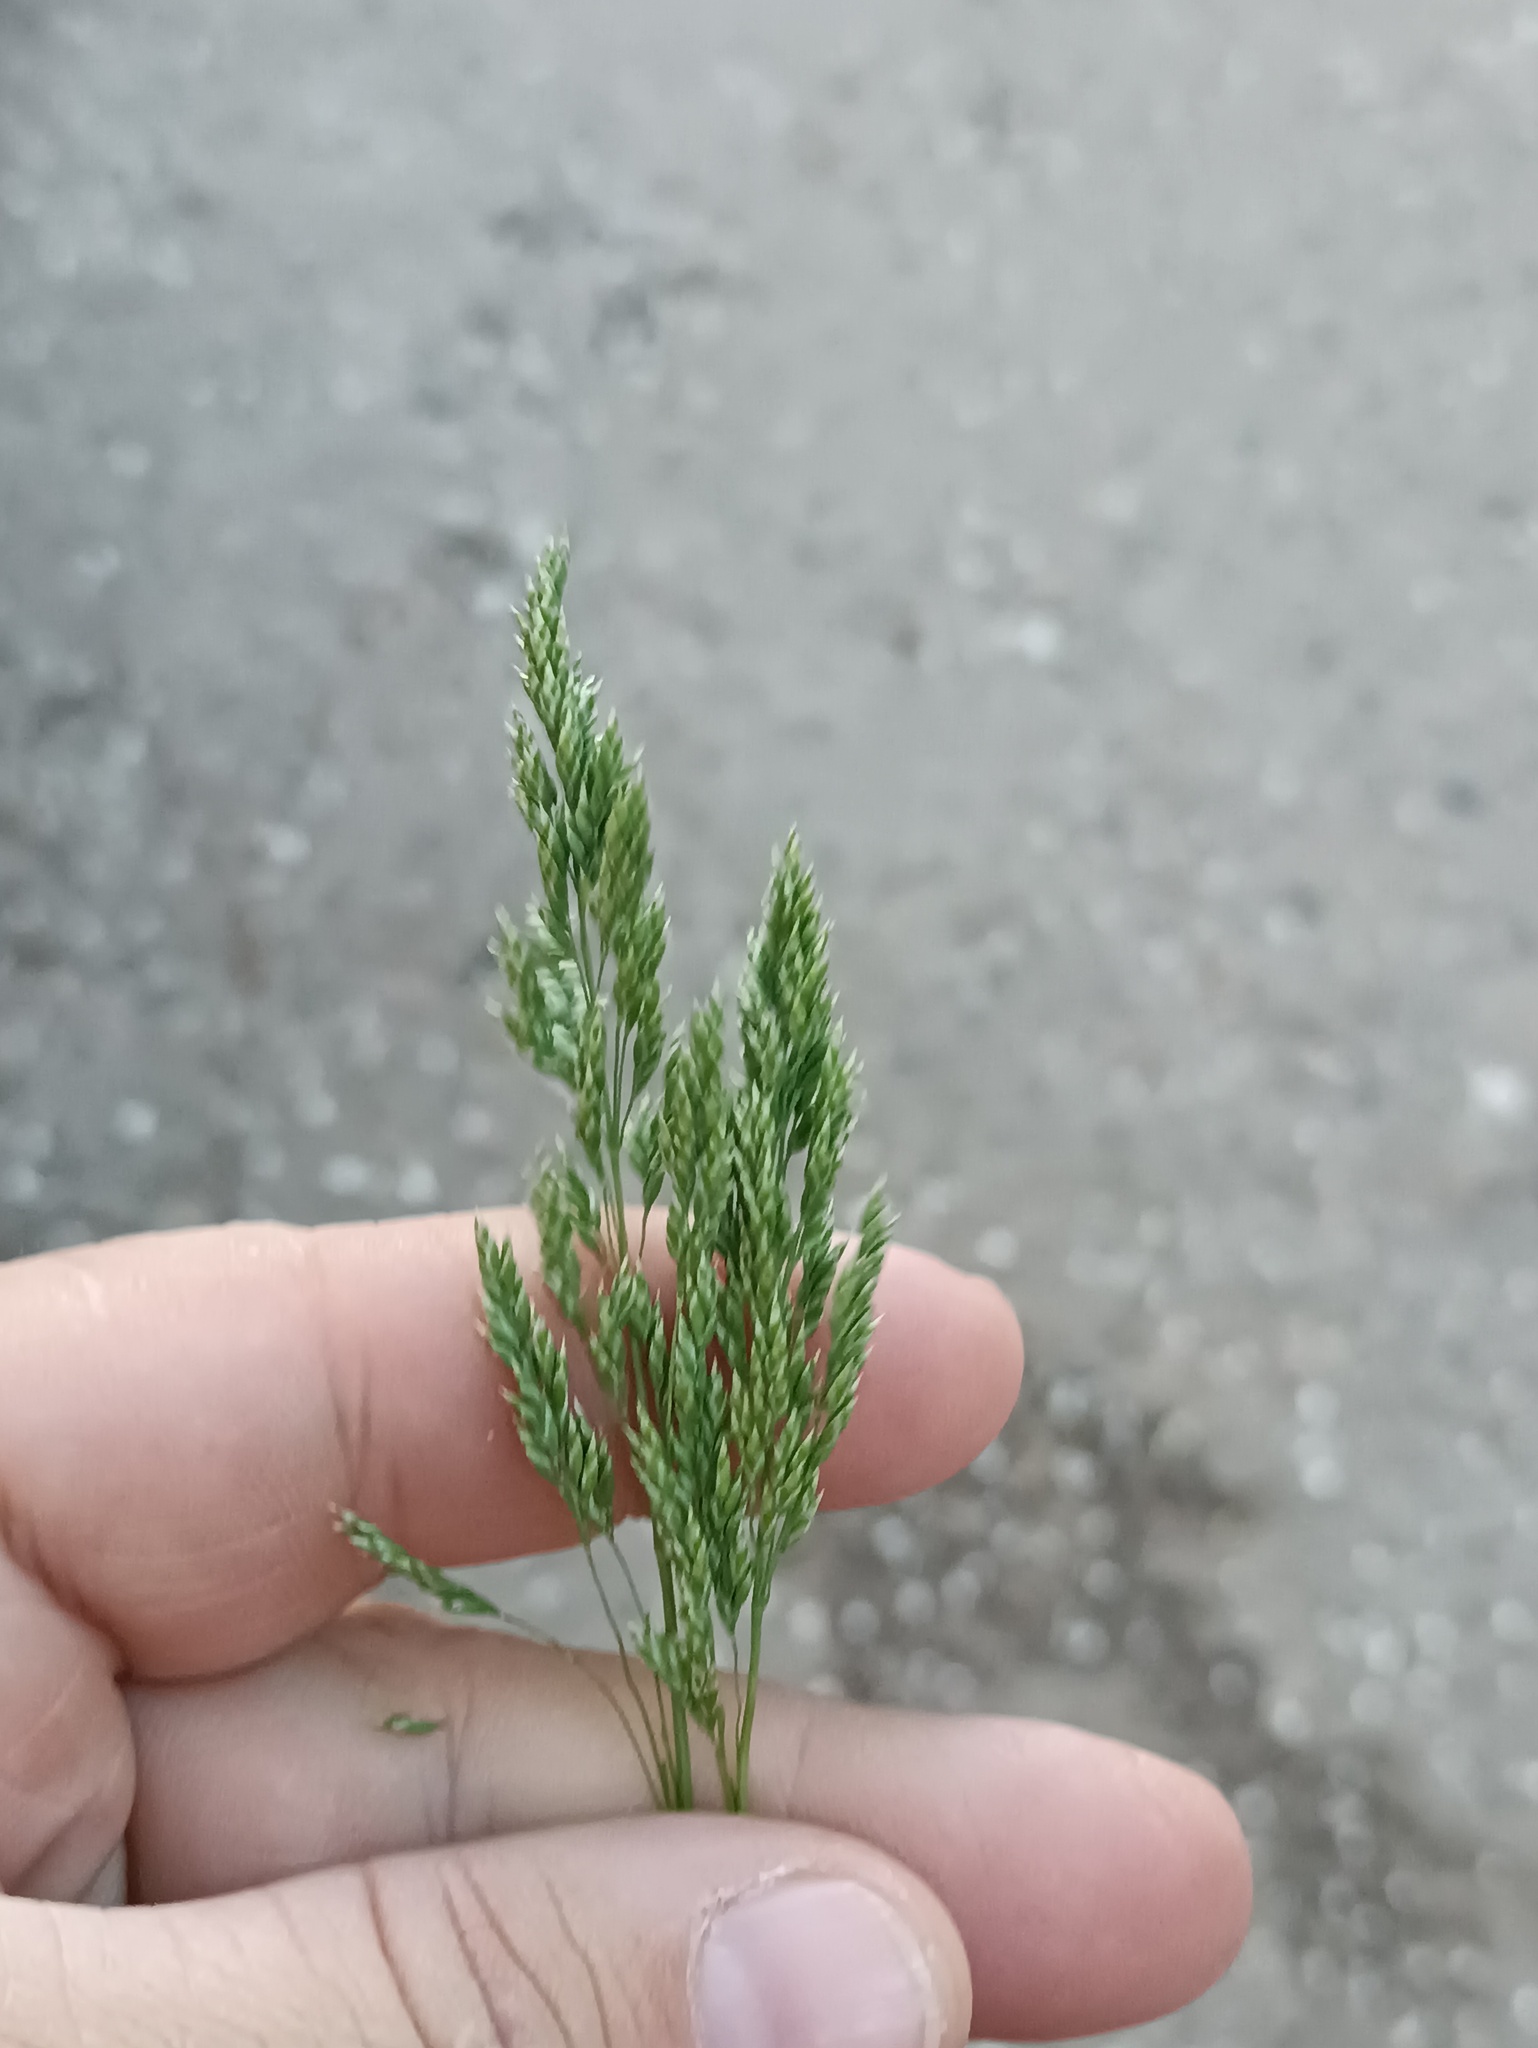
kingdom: Plantae
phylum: Tracheophyta
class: Liliopsida
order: Poales
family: Poaceae
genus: Poa
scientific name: Poa pratensis
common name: Kentucky bluegrass
